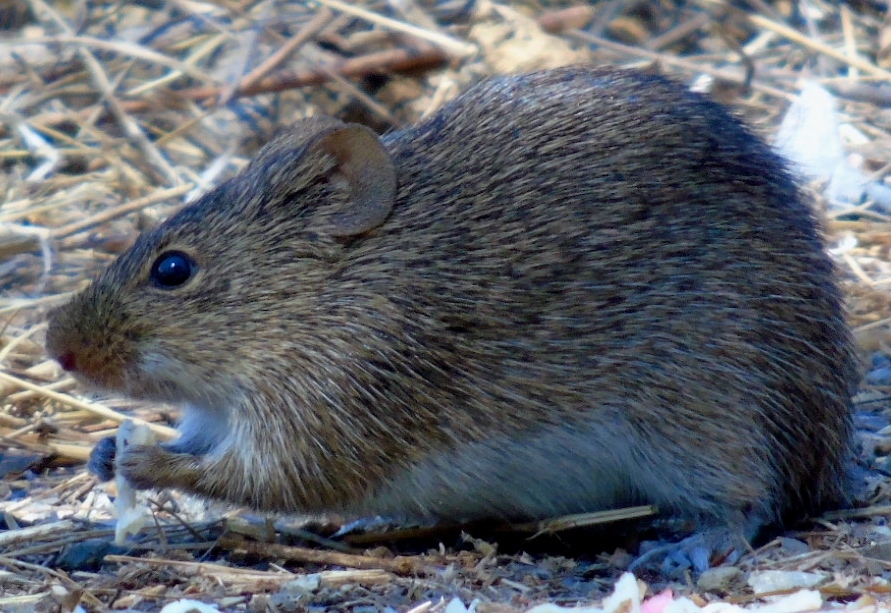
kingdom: Animalia
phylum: Chordata
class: Mammalia
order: Rodentia
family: Cricetidae
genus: Sigmodon
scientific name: Sigmodon arizonae
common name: Arizona cotton rat
